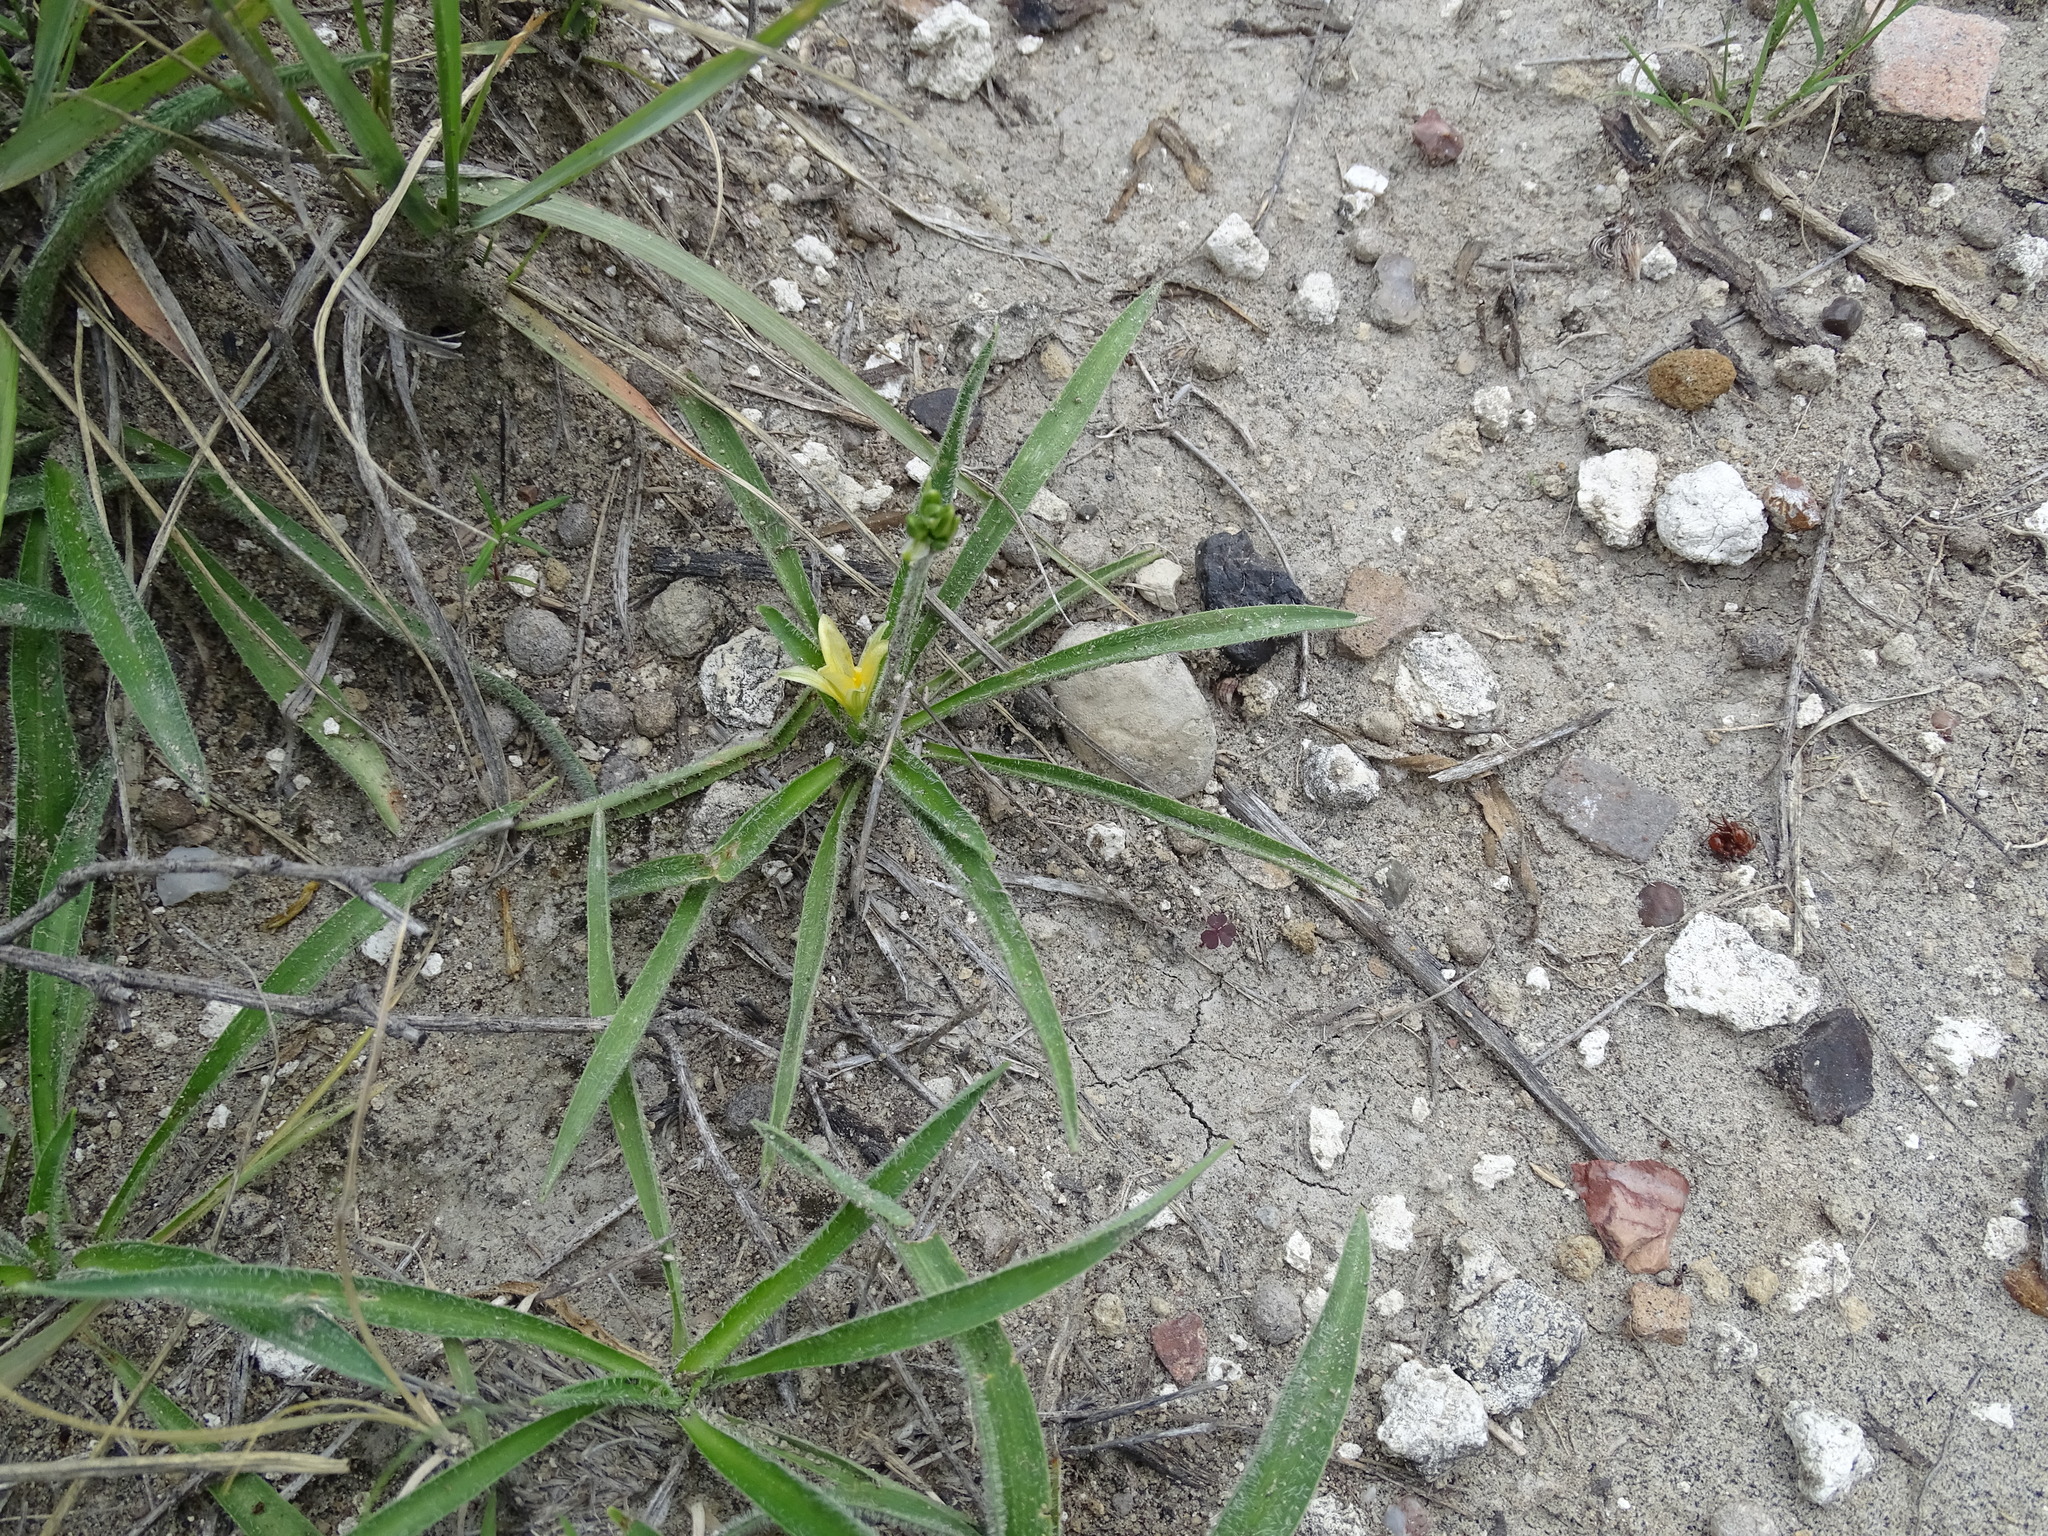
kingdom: Plantae
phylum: Tracheophyta
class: Liliopsida
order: Asparagales
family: Asparagaceae
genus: Echeandia
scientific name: Echeandia vestita
